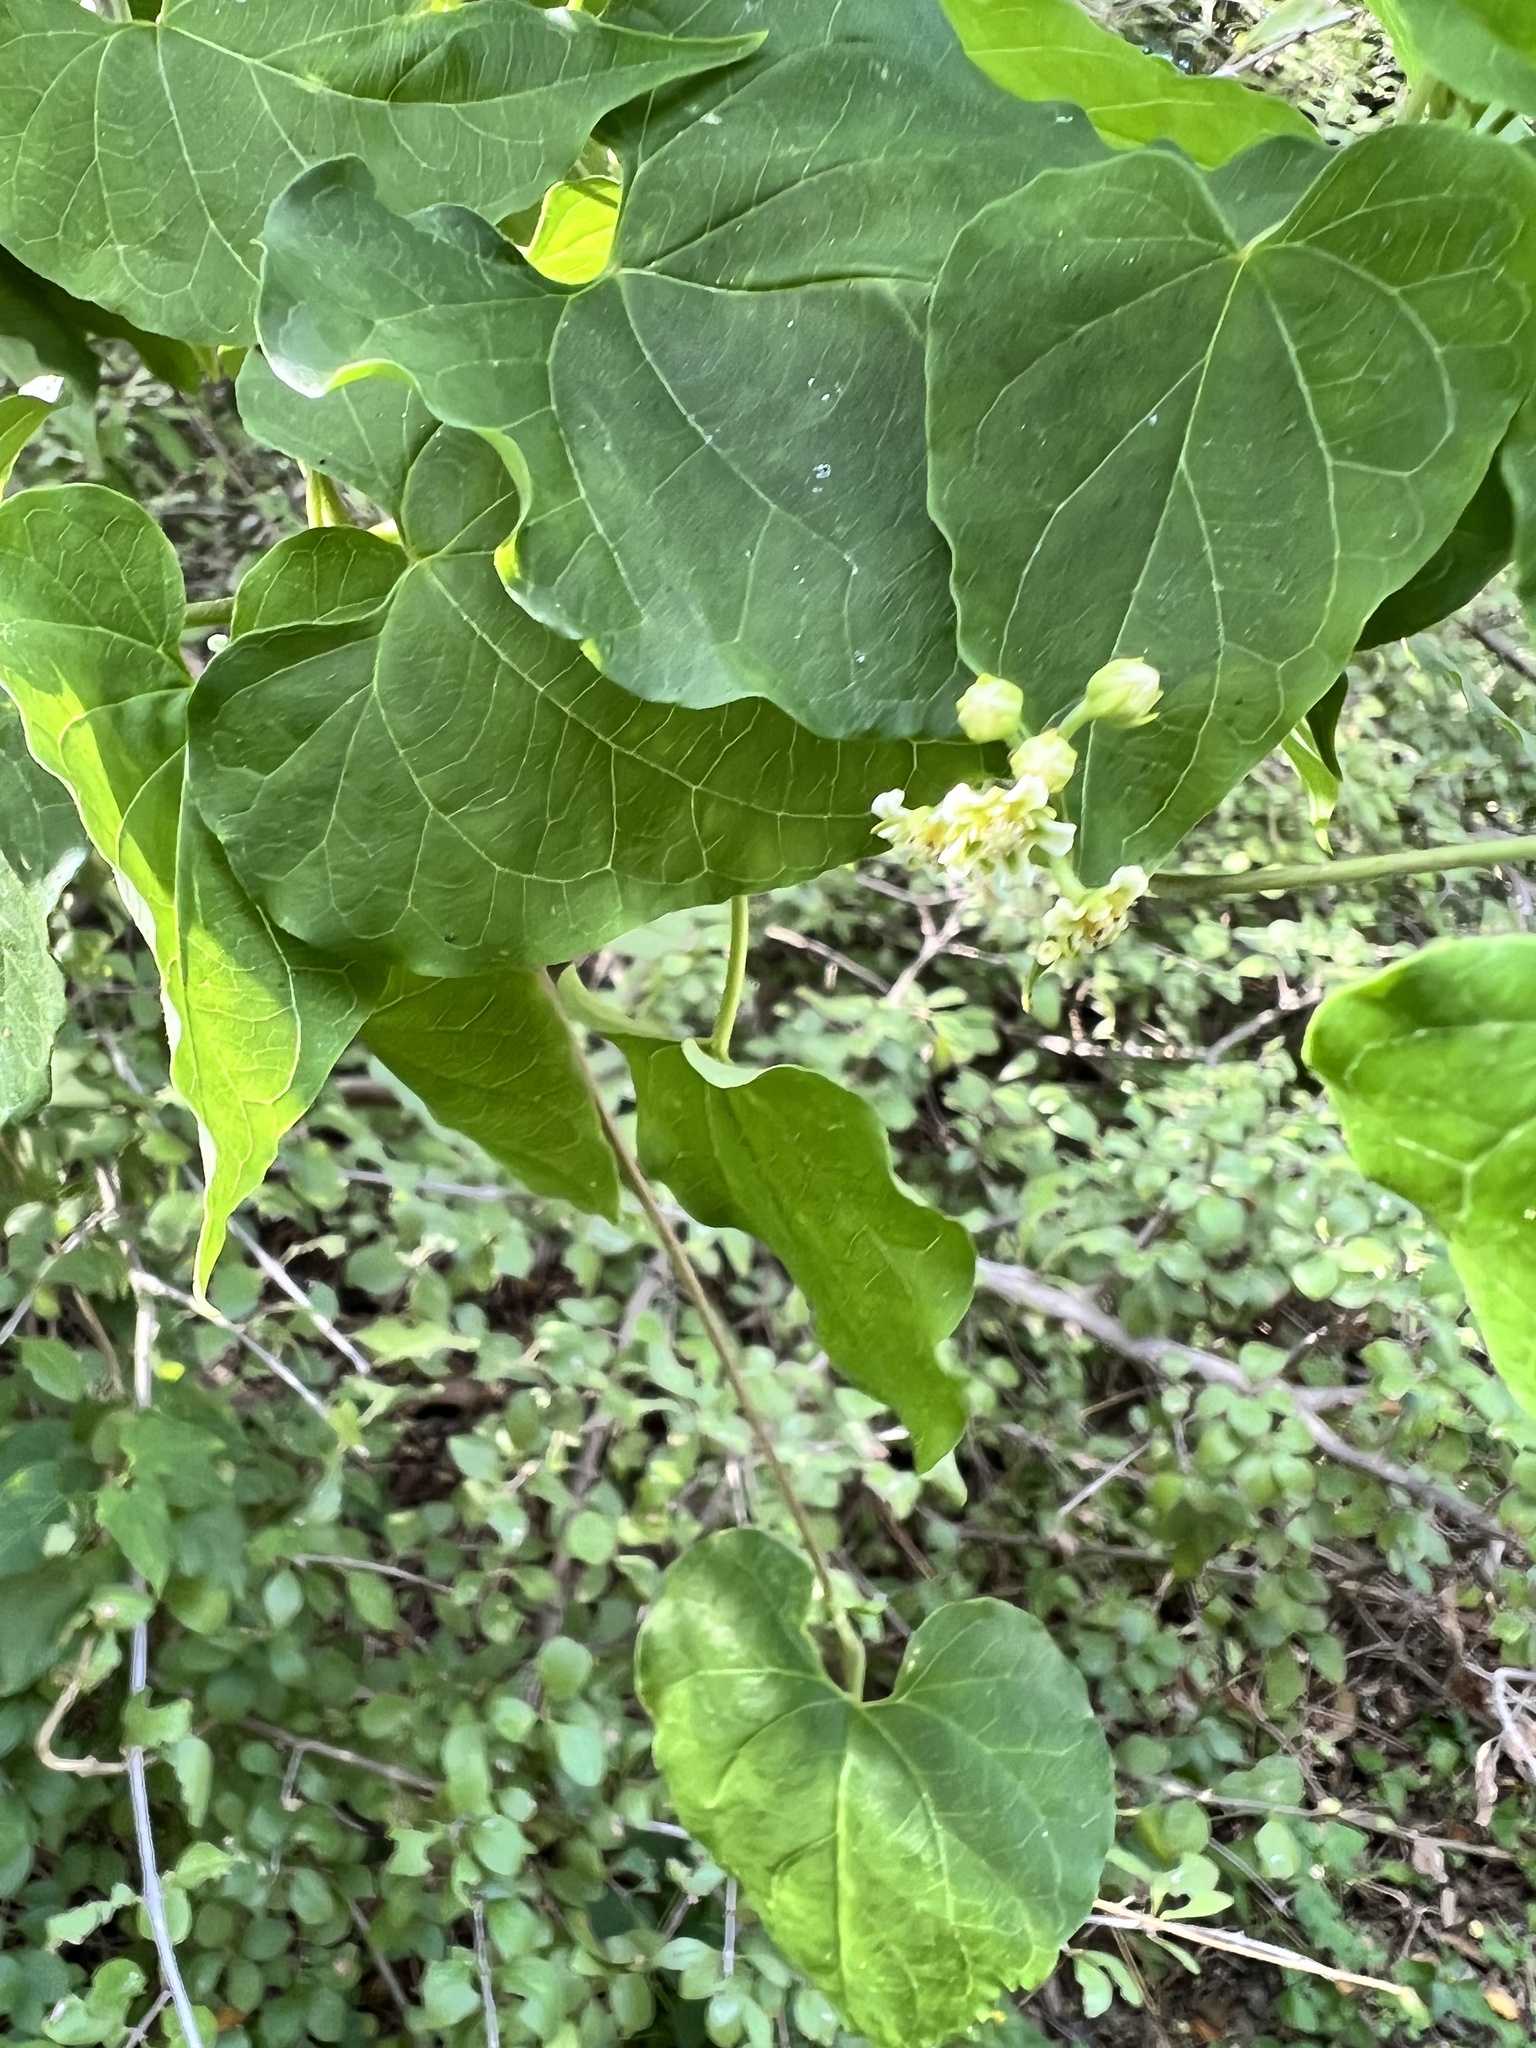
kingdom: Plantae
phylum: Tracheophyta
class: Magnoliopsida
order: Gentianales
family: Apocynaceae
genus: Cynanchum
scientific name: Cynanchum racemosum
